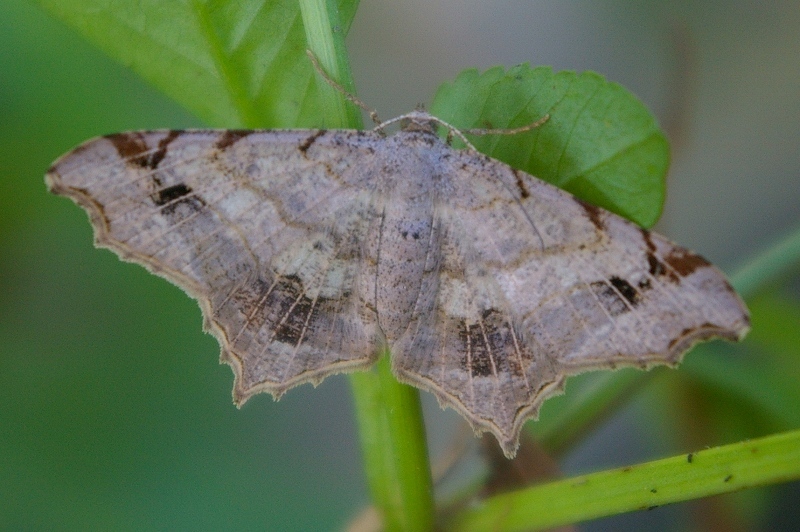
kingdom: Animalia
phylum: Arthropoda
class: Insecta
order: Lepidoptera
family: Geometridae
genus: Chiasmia
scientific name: Chiasmia emersaria
